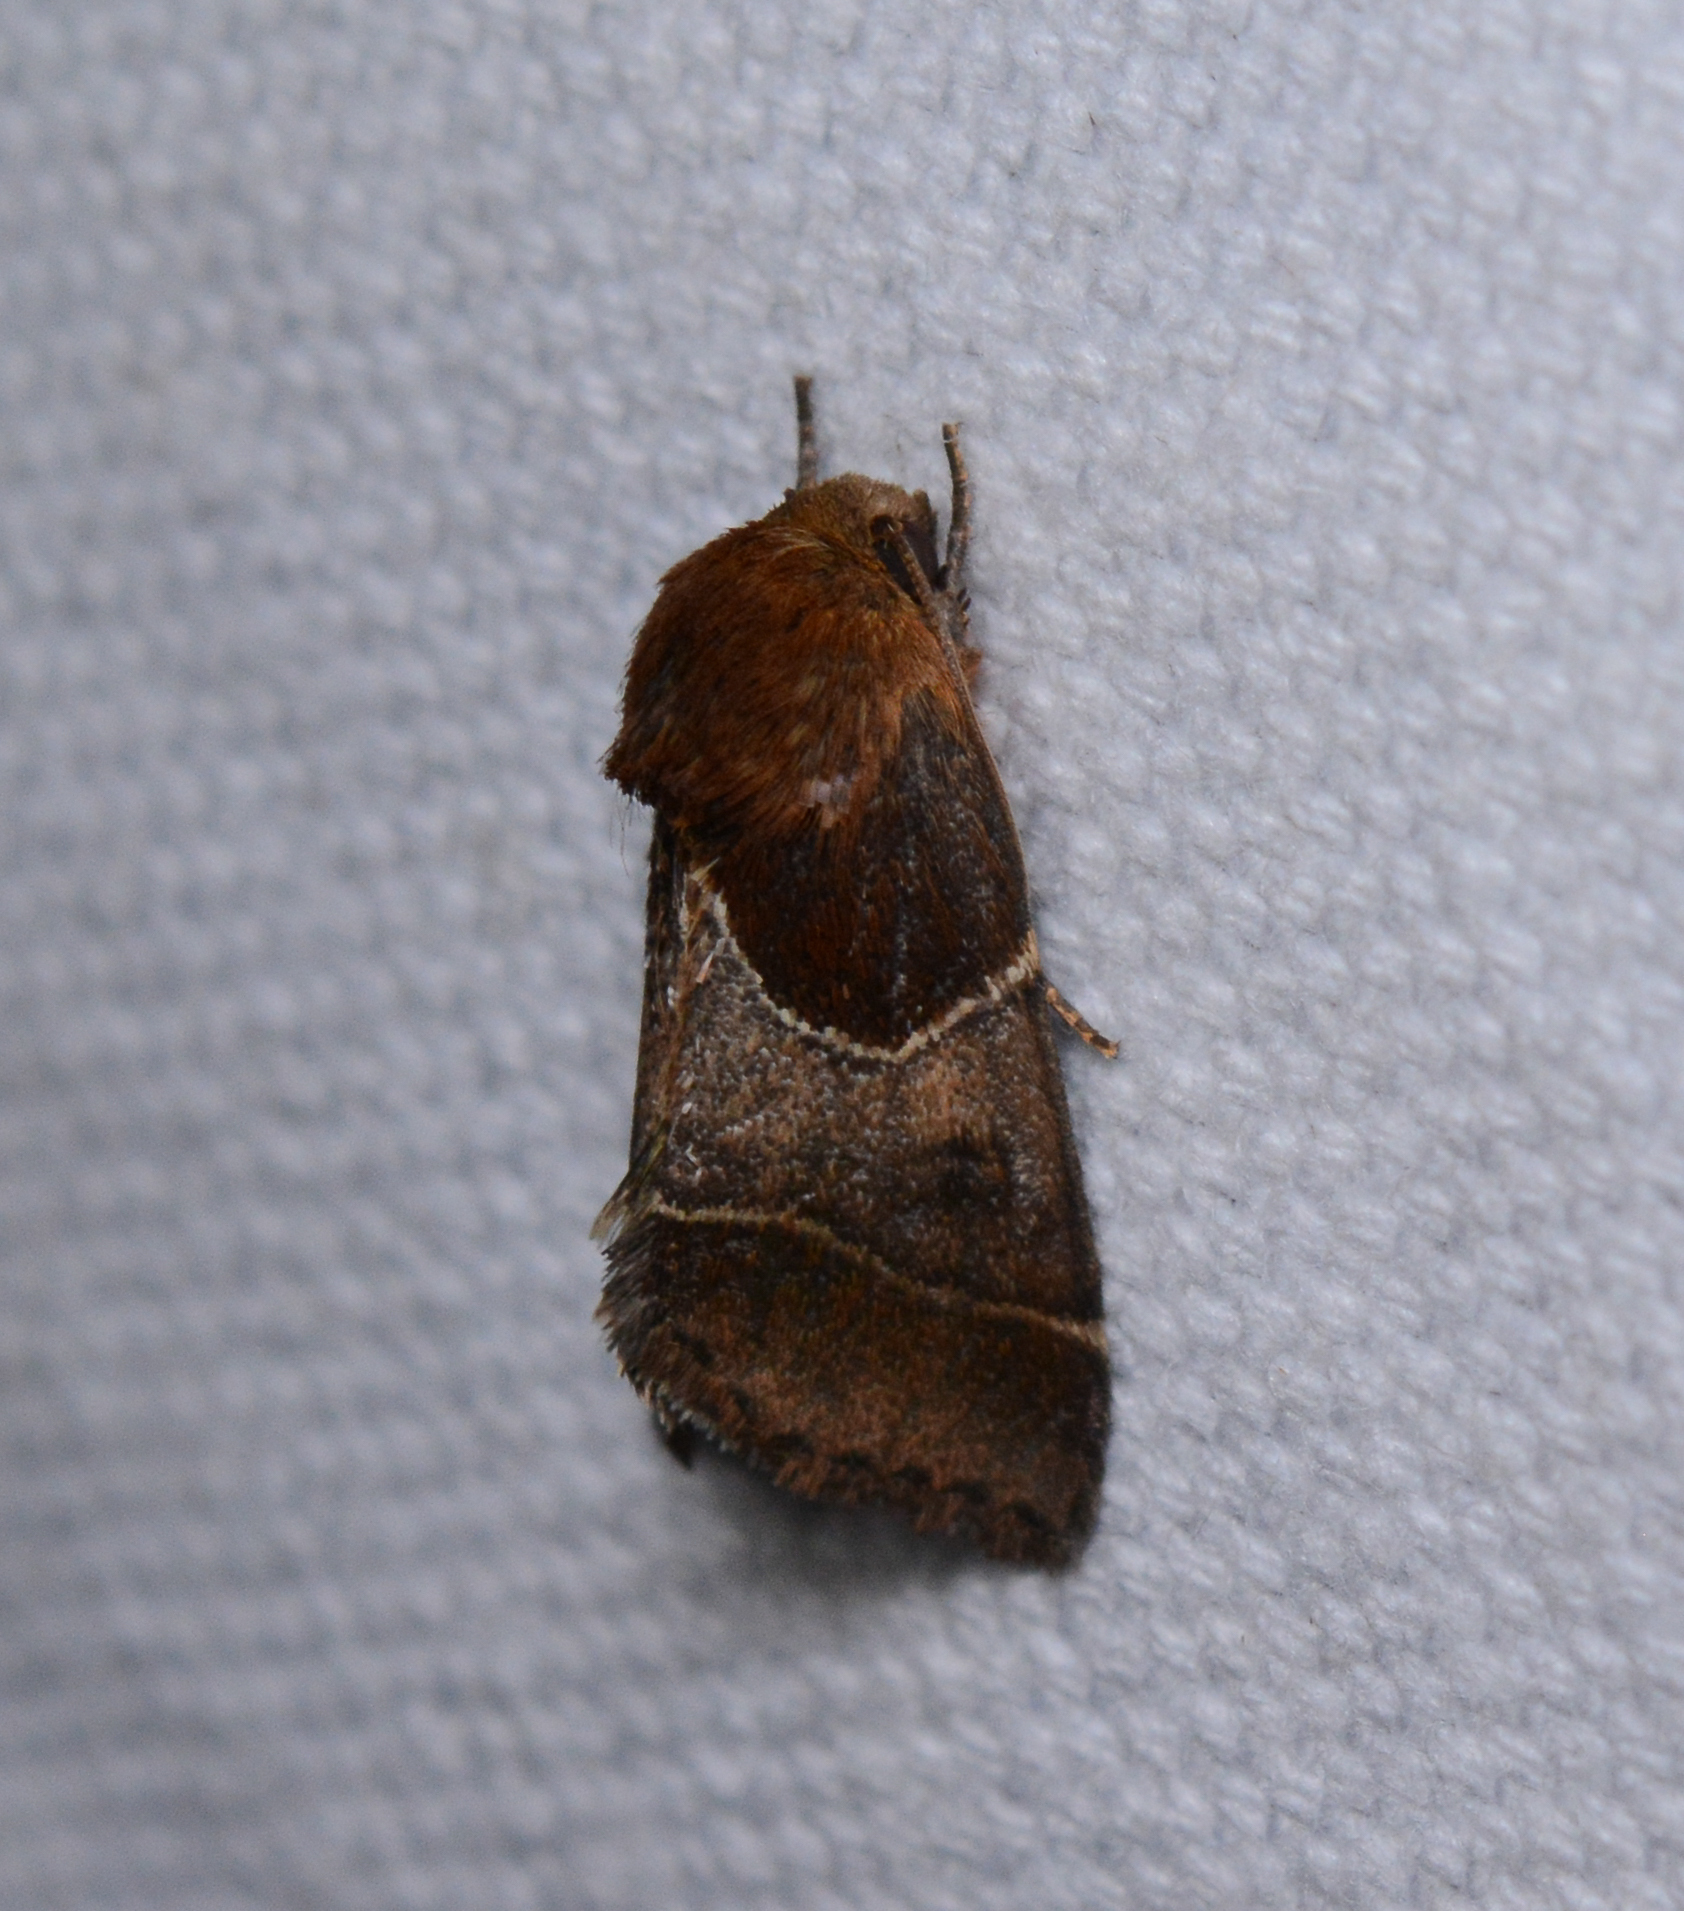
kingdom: Animalia
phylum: Arthropoda
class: Insecta
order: Lepidoptera
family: Noctuidae
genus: Schinia
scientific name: Schinia arcigera
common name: Arcigera flower moth
